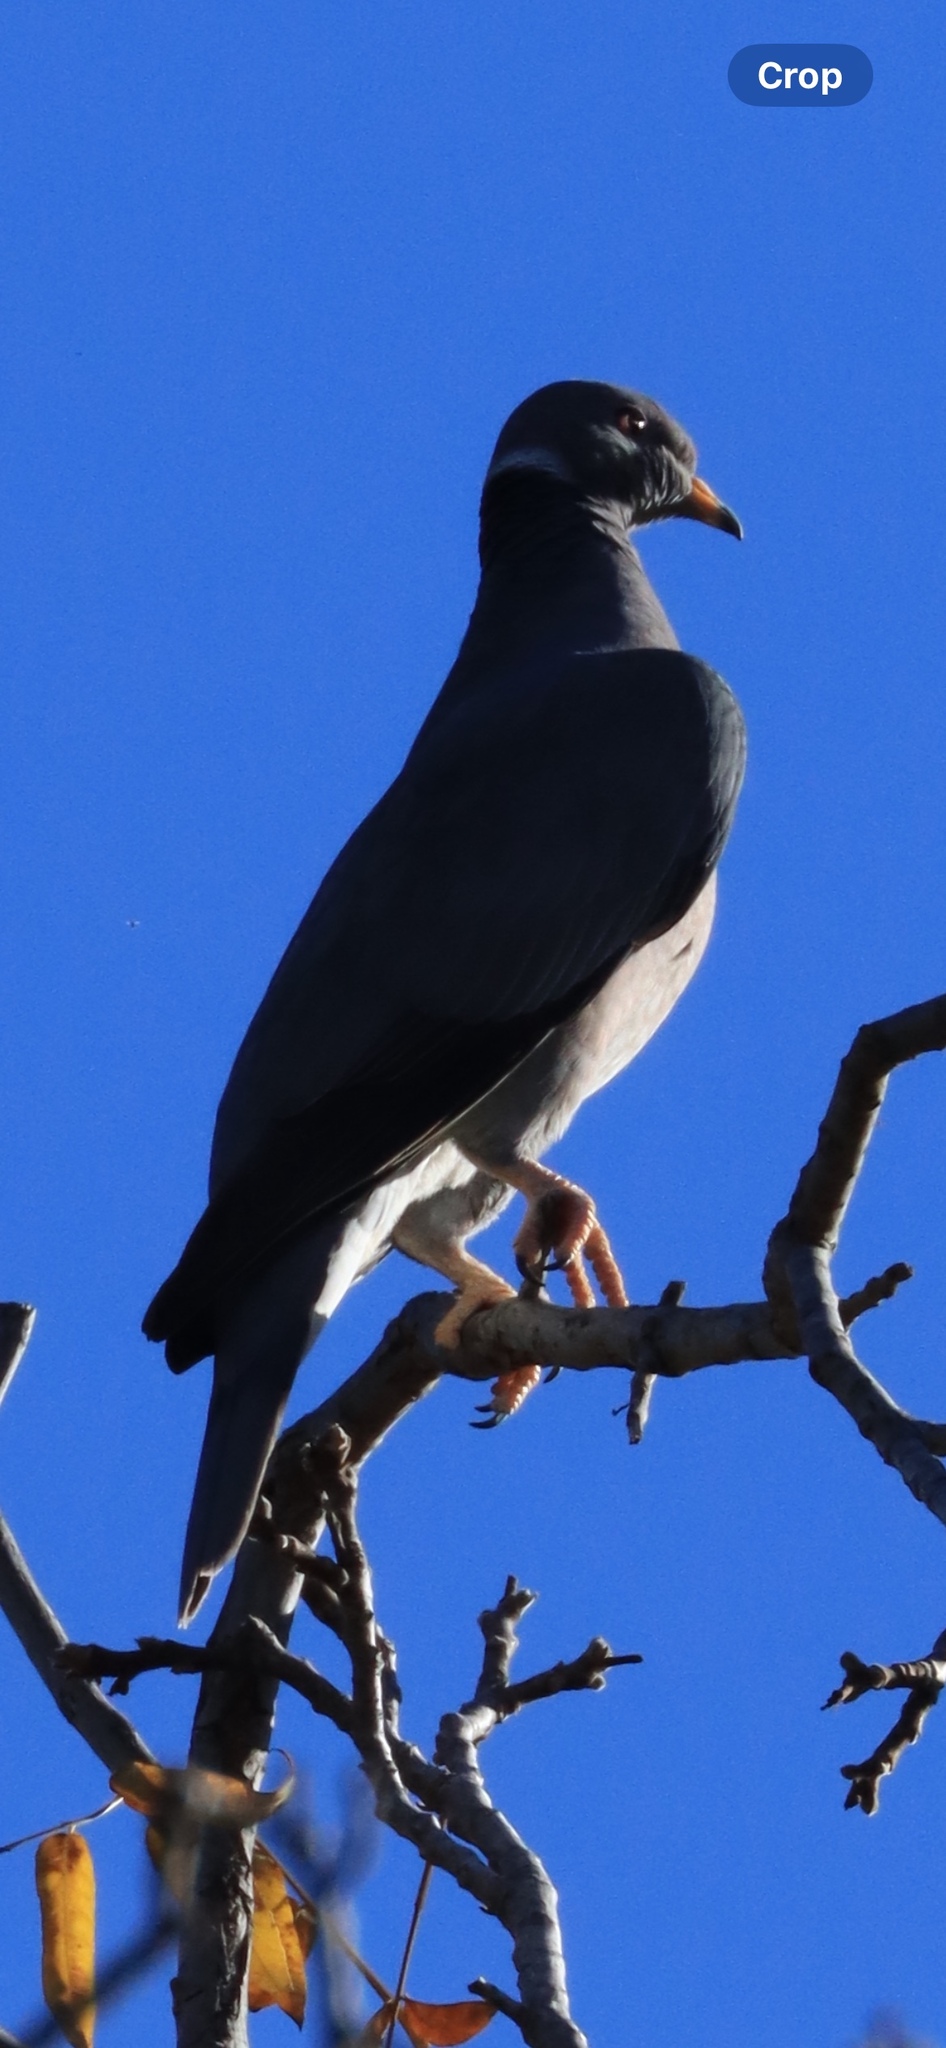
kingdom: Animalia
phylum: Chordata
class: Aves
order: Columbiformes
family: Columbidae
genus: Patagioenas
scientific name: Patagioenas fasciata
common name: Band-tailed pigeon
